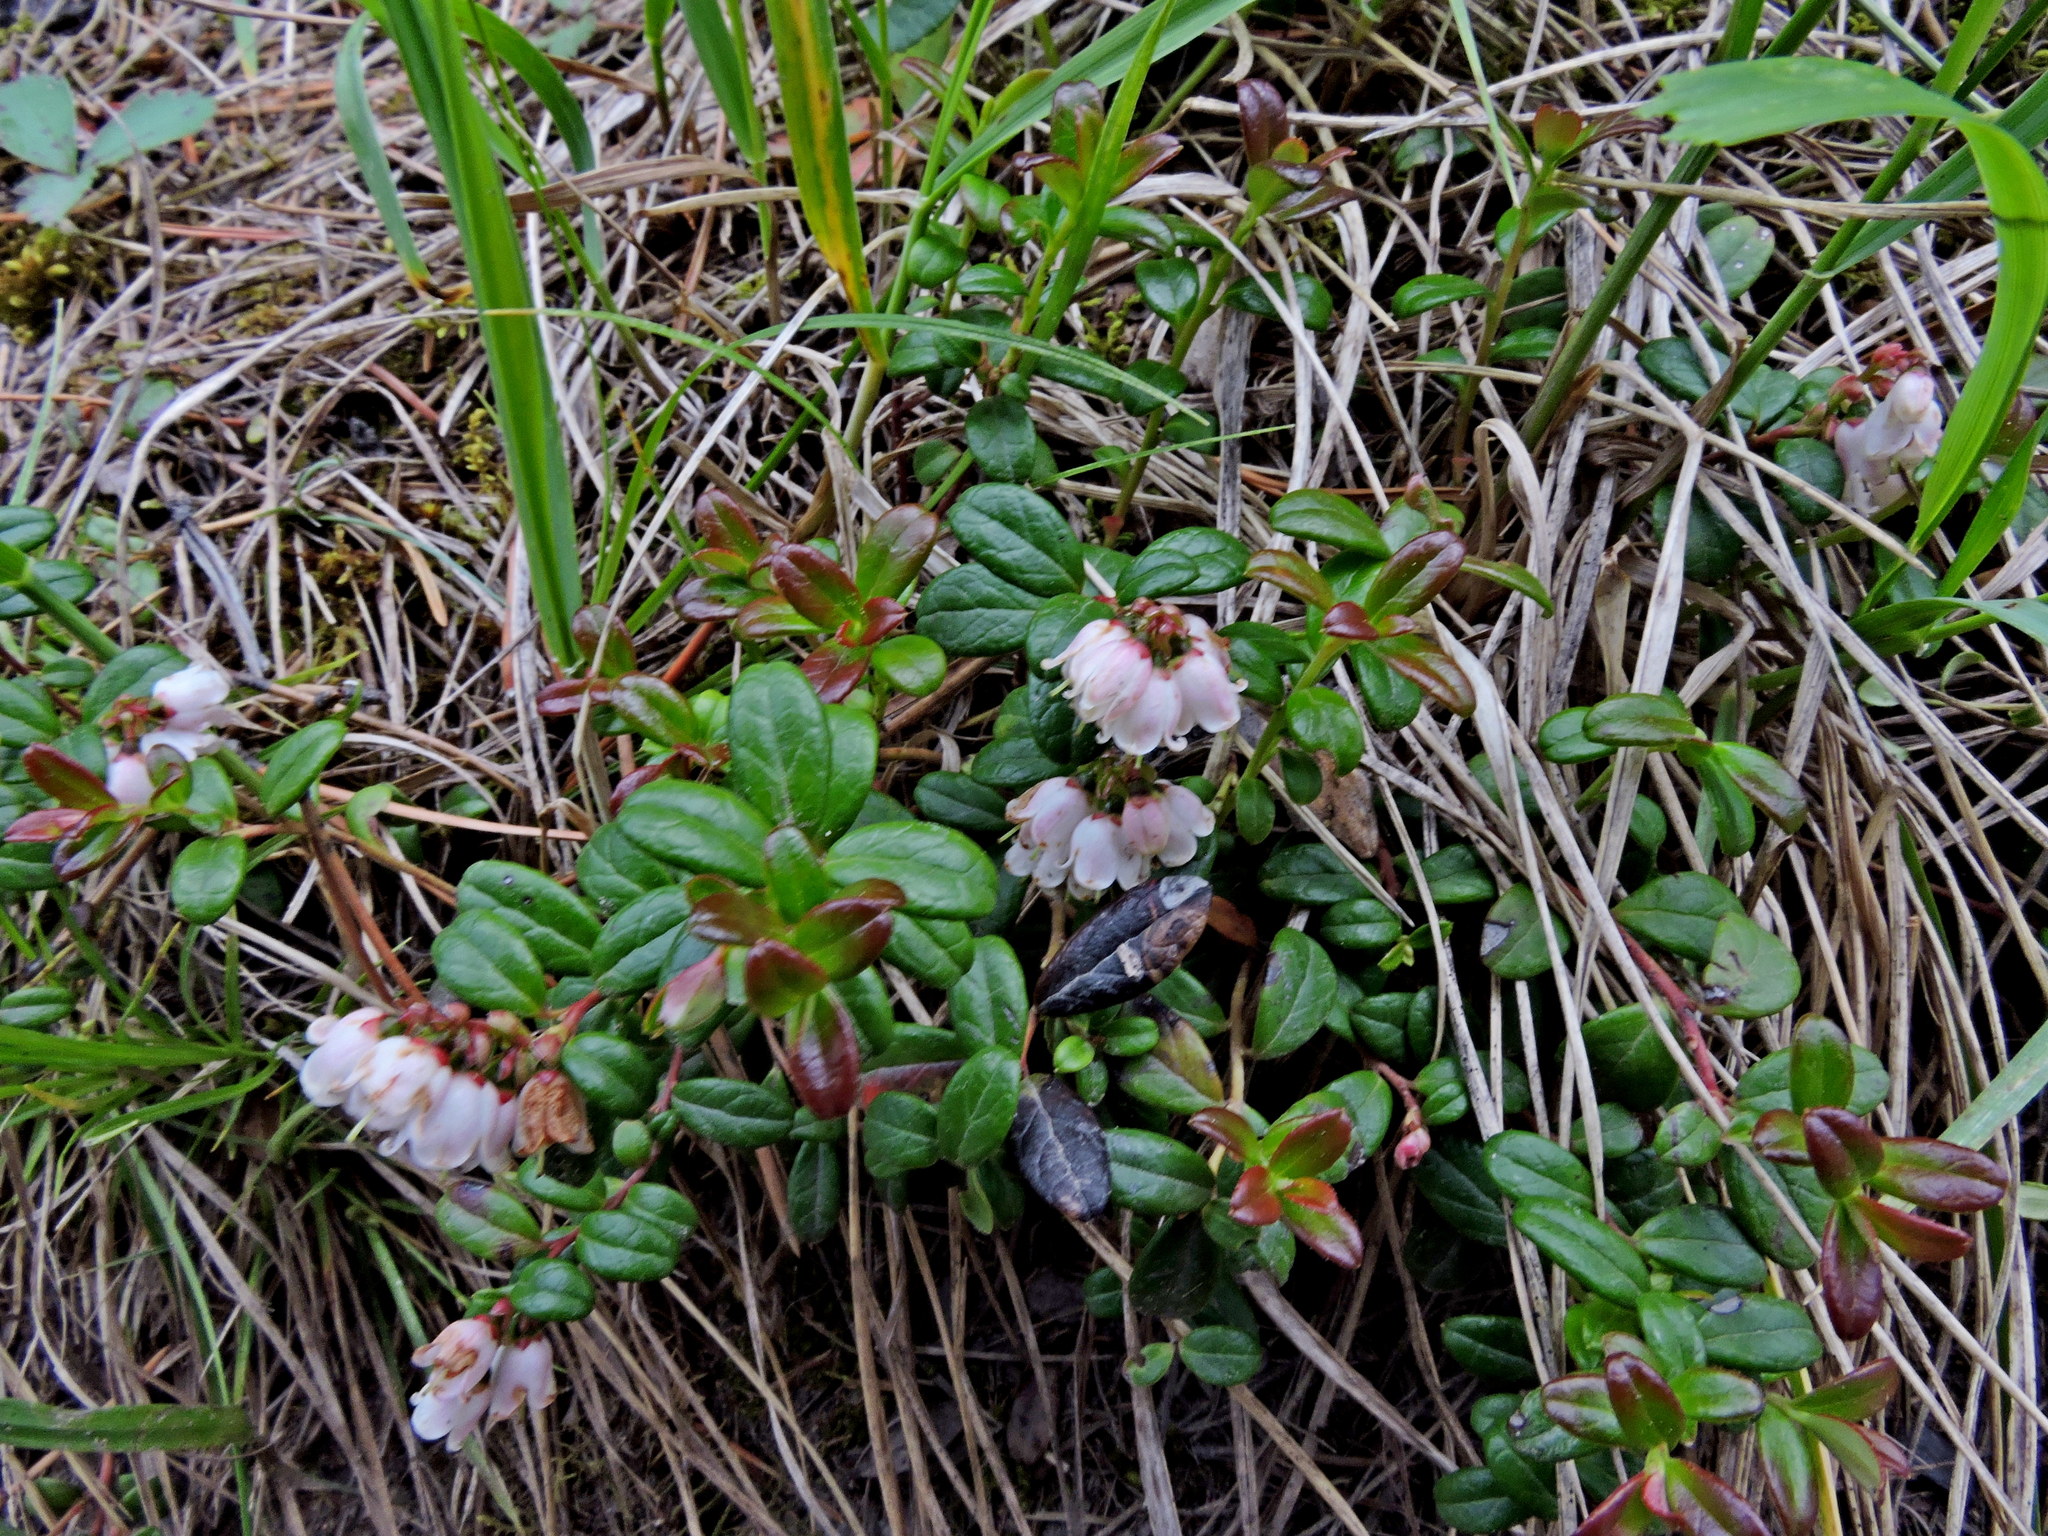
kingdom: Plantae
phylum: Tracheophyta
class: Magnoliopsida
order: Ericales
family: Ericaceae
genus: Vaccinium
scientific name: Vaccinium vitis-idaea
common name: Cowberry
